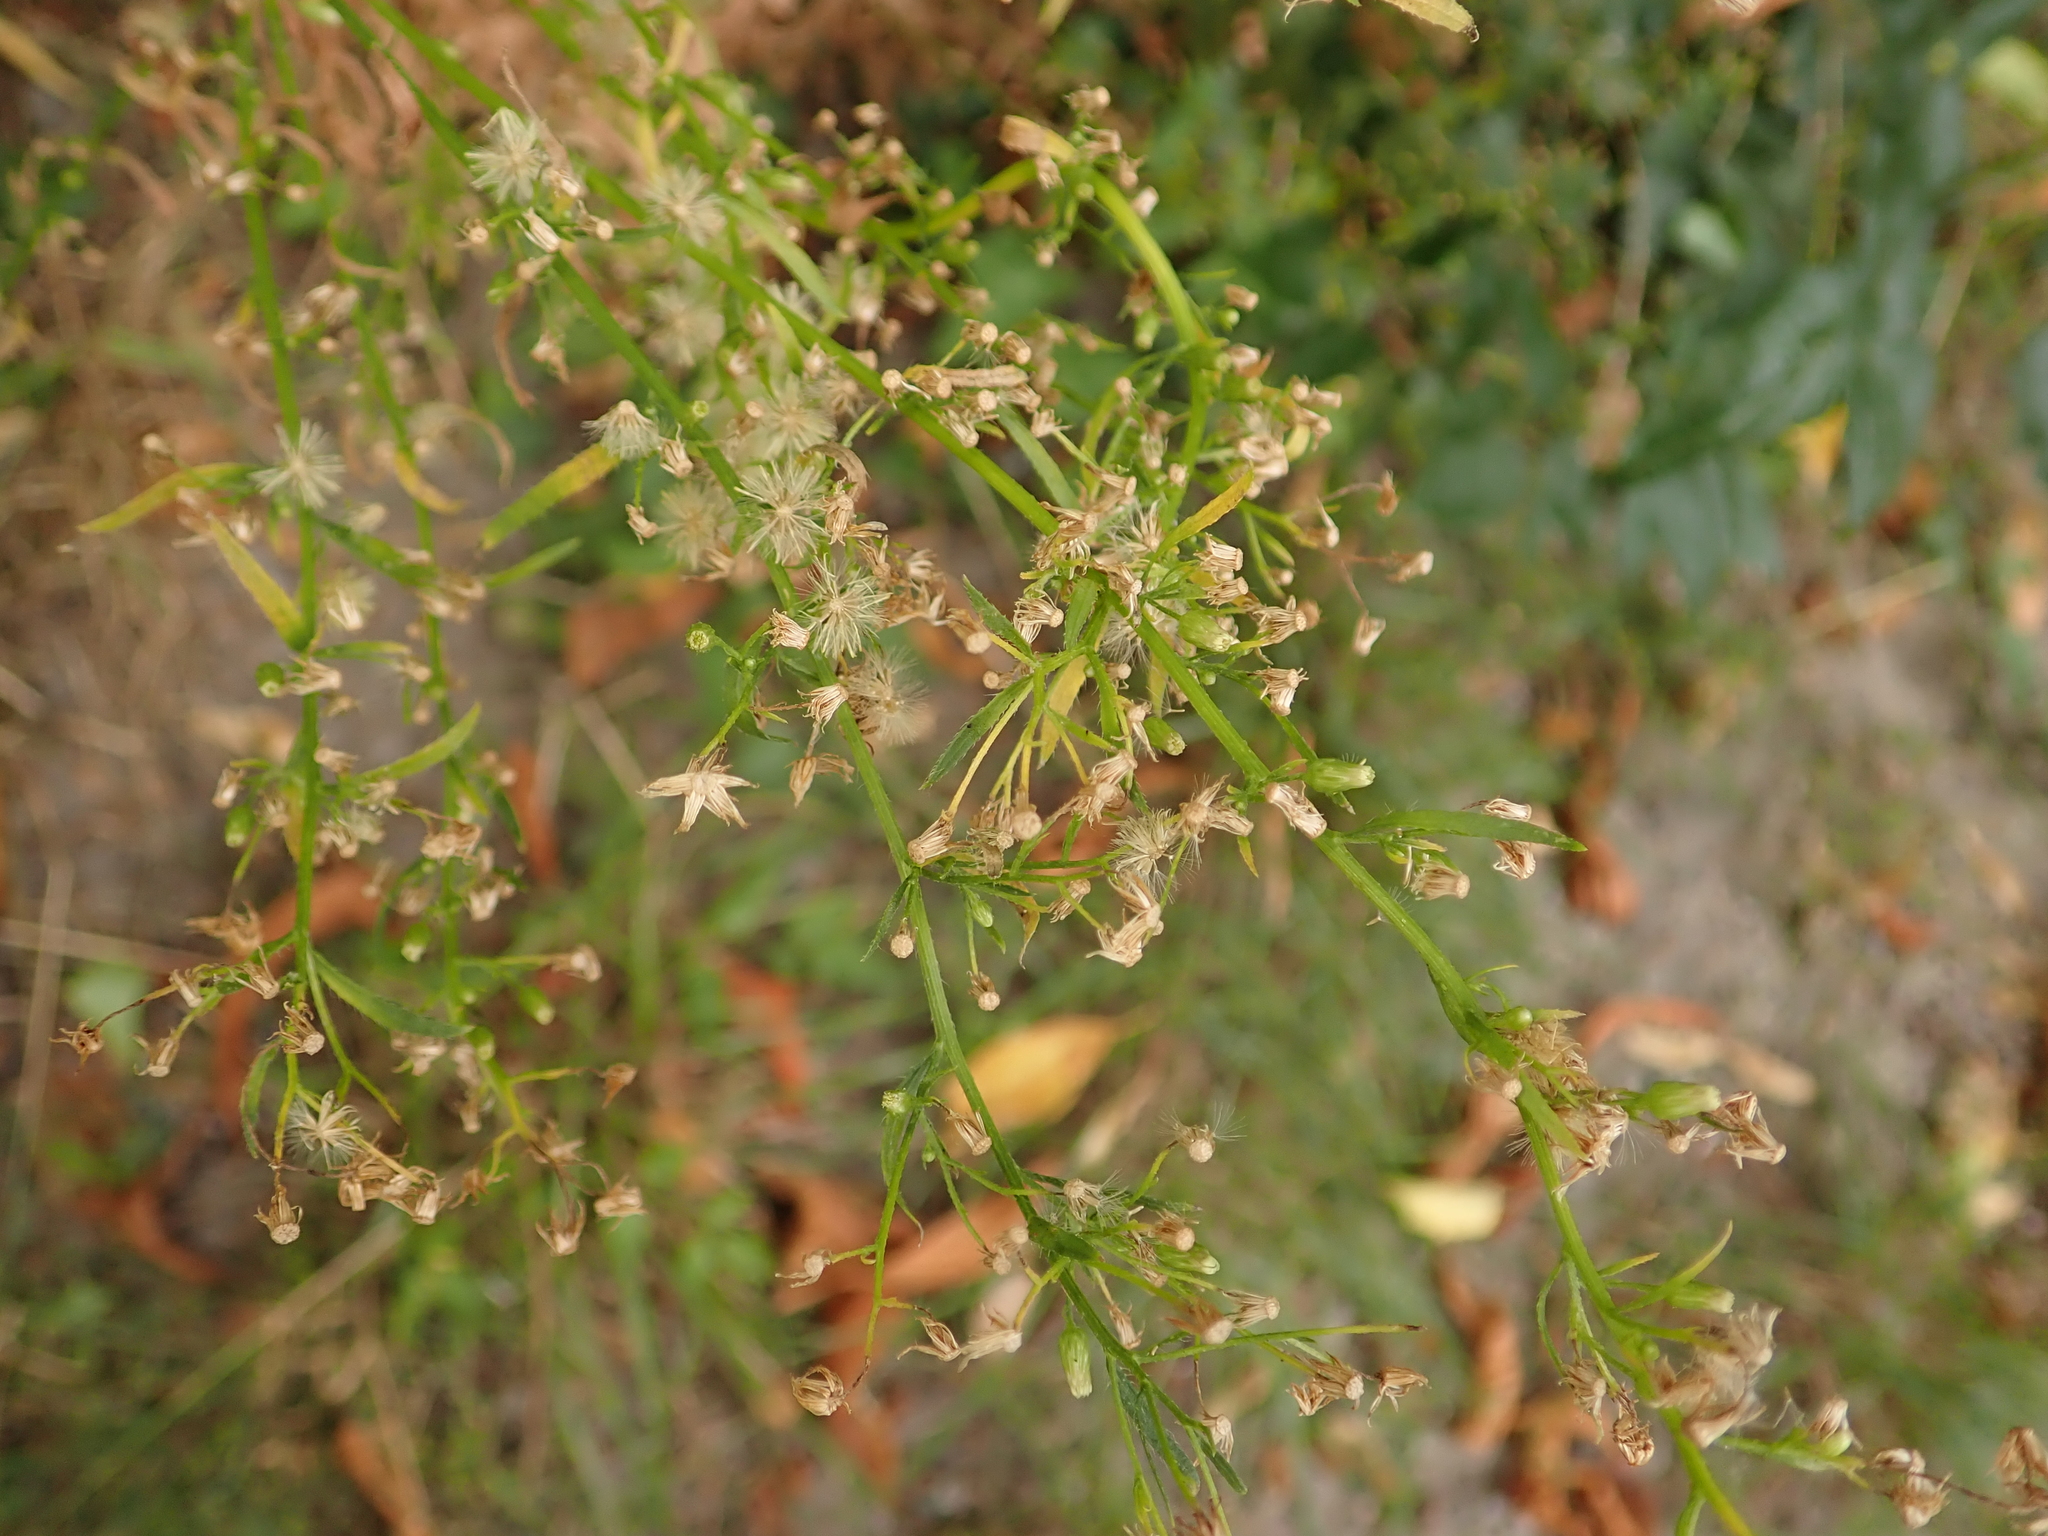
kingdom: Plantae
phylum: Tracheophyta
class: Magnoliopsida
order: Asterales
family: Asteraceae
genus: Erigeron
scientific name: Erigeron canadensis
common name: Canadian fleabane
